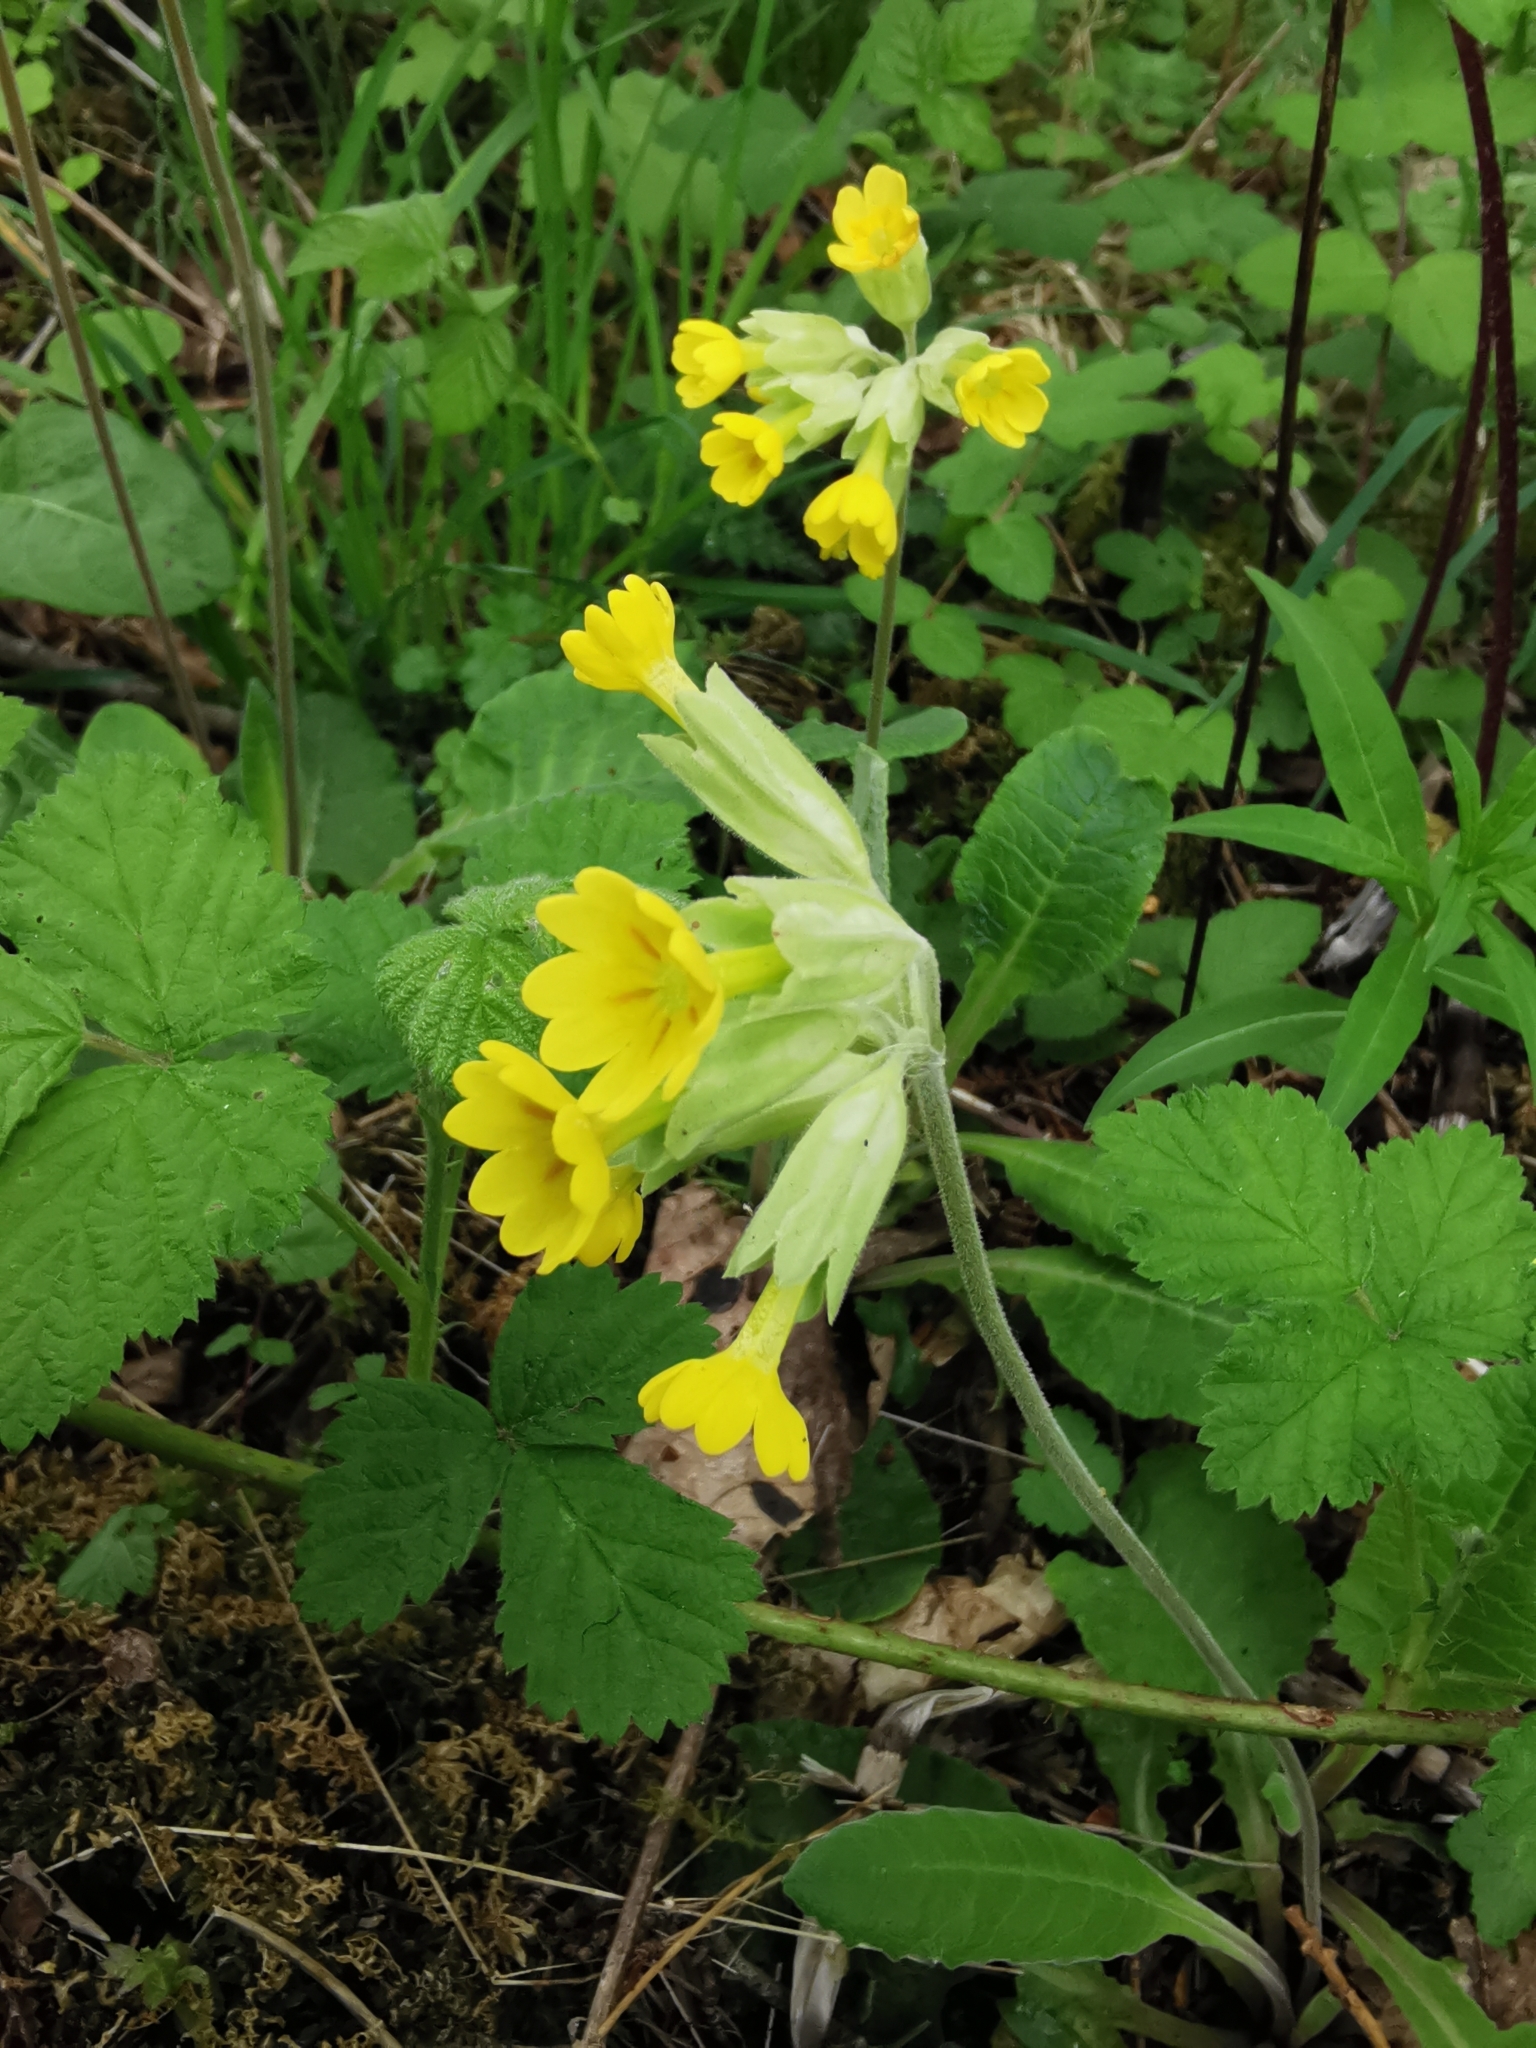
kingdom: Plantae
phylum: Tracheophyta
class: Magnoliopsida
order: Ericales
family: Primulaceae
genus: Primula
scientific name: Primula veris
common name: Cowslip
